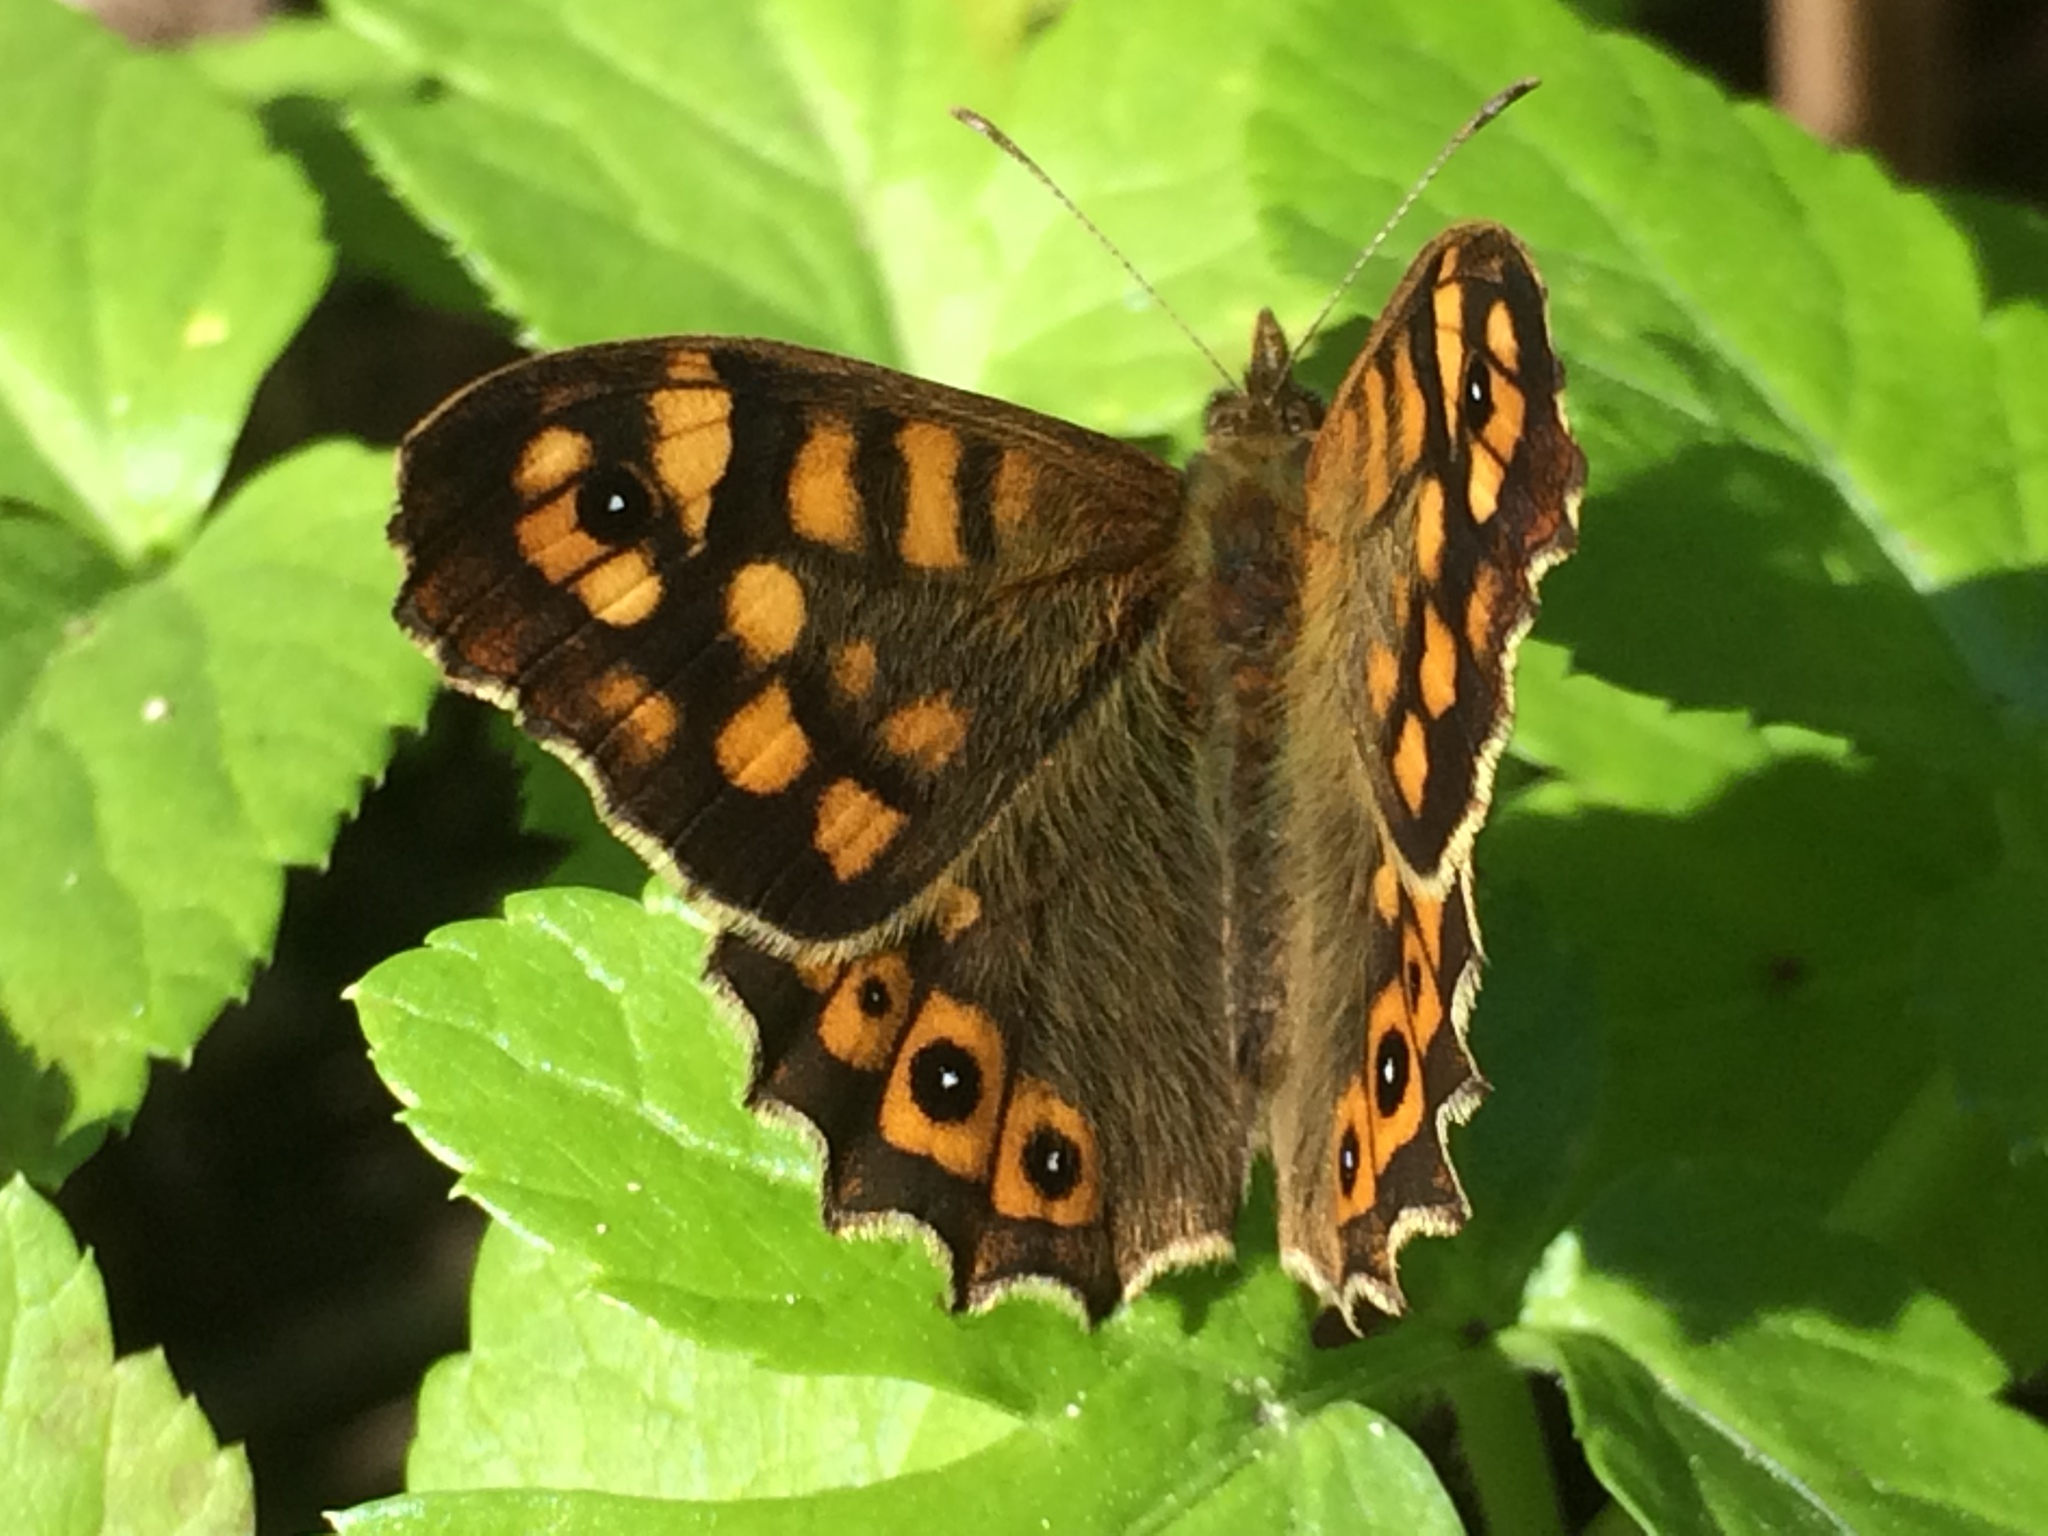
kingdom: Animalia
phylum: Arthropoda
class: Insecta
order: Lepidoptera
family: Nymphalidae
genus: Pararge
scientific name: Pararge aegeria
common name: Speckled wood
